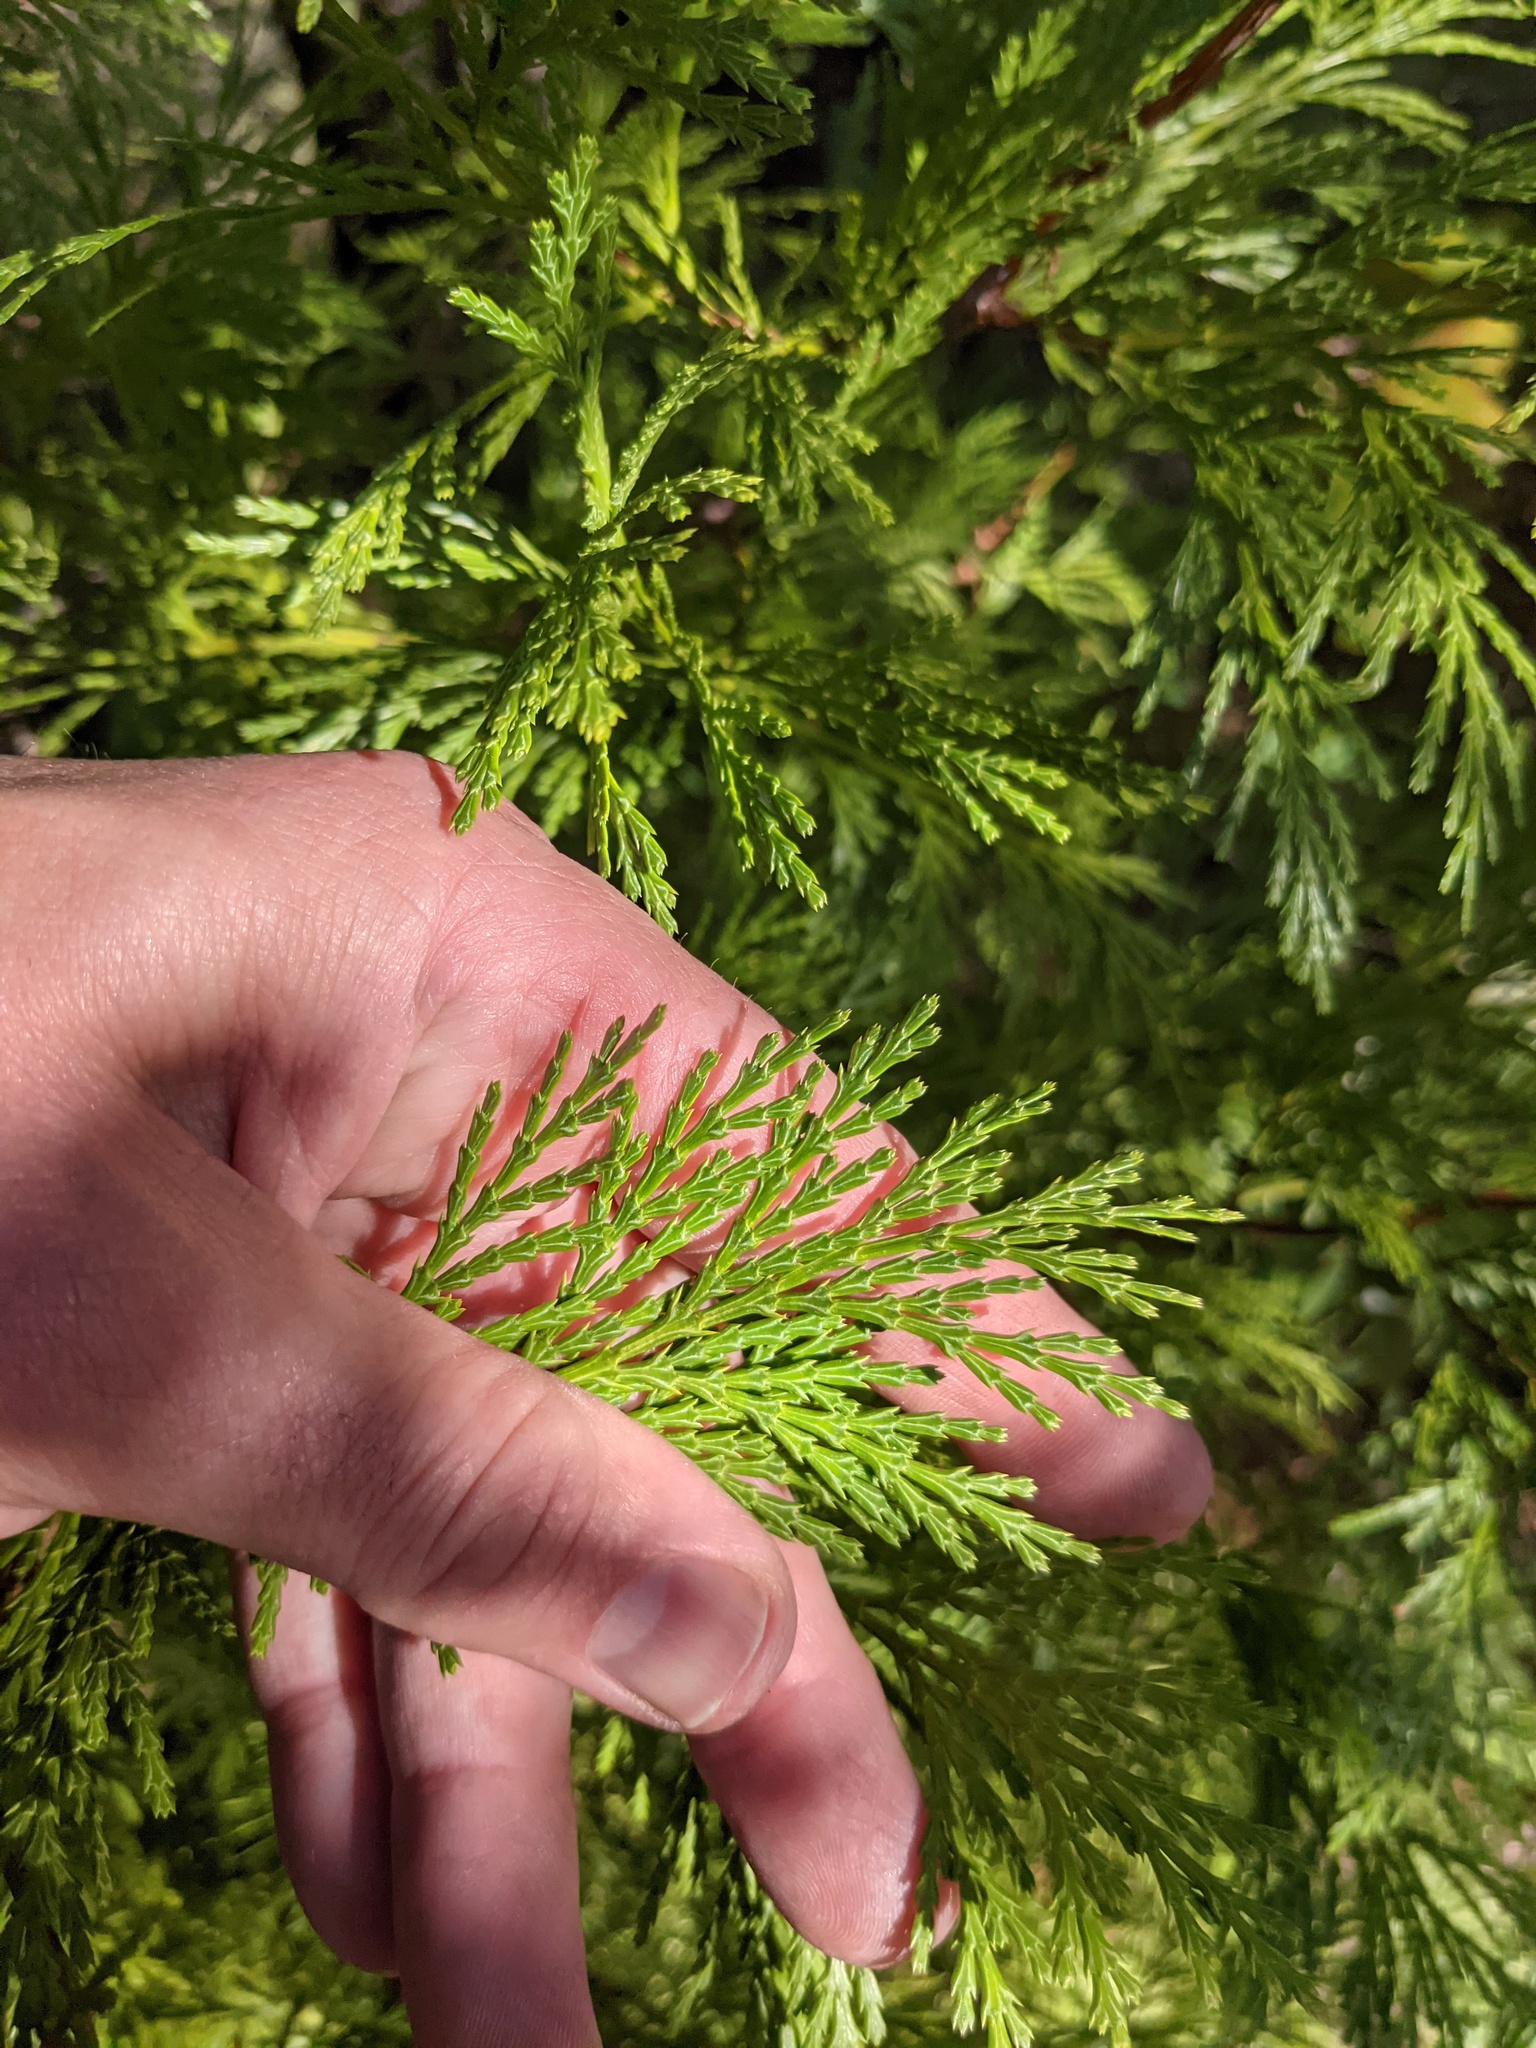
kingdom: Plantae
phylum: Tracheophyta
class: Pinopsida
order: Pinales
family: Cupressaceae
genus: Calocedrus
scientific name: Calocedrus decurrens
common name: Californian incense-cedar
